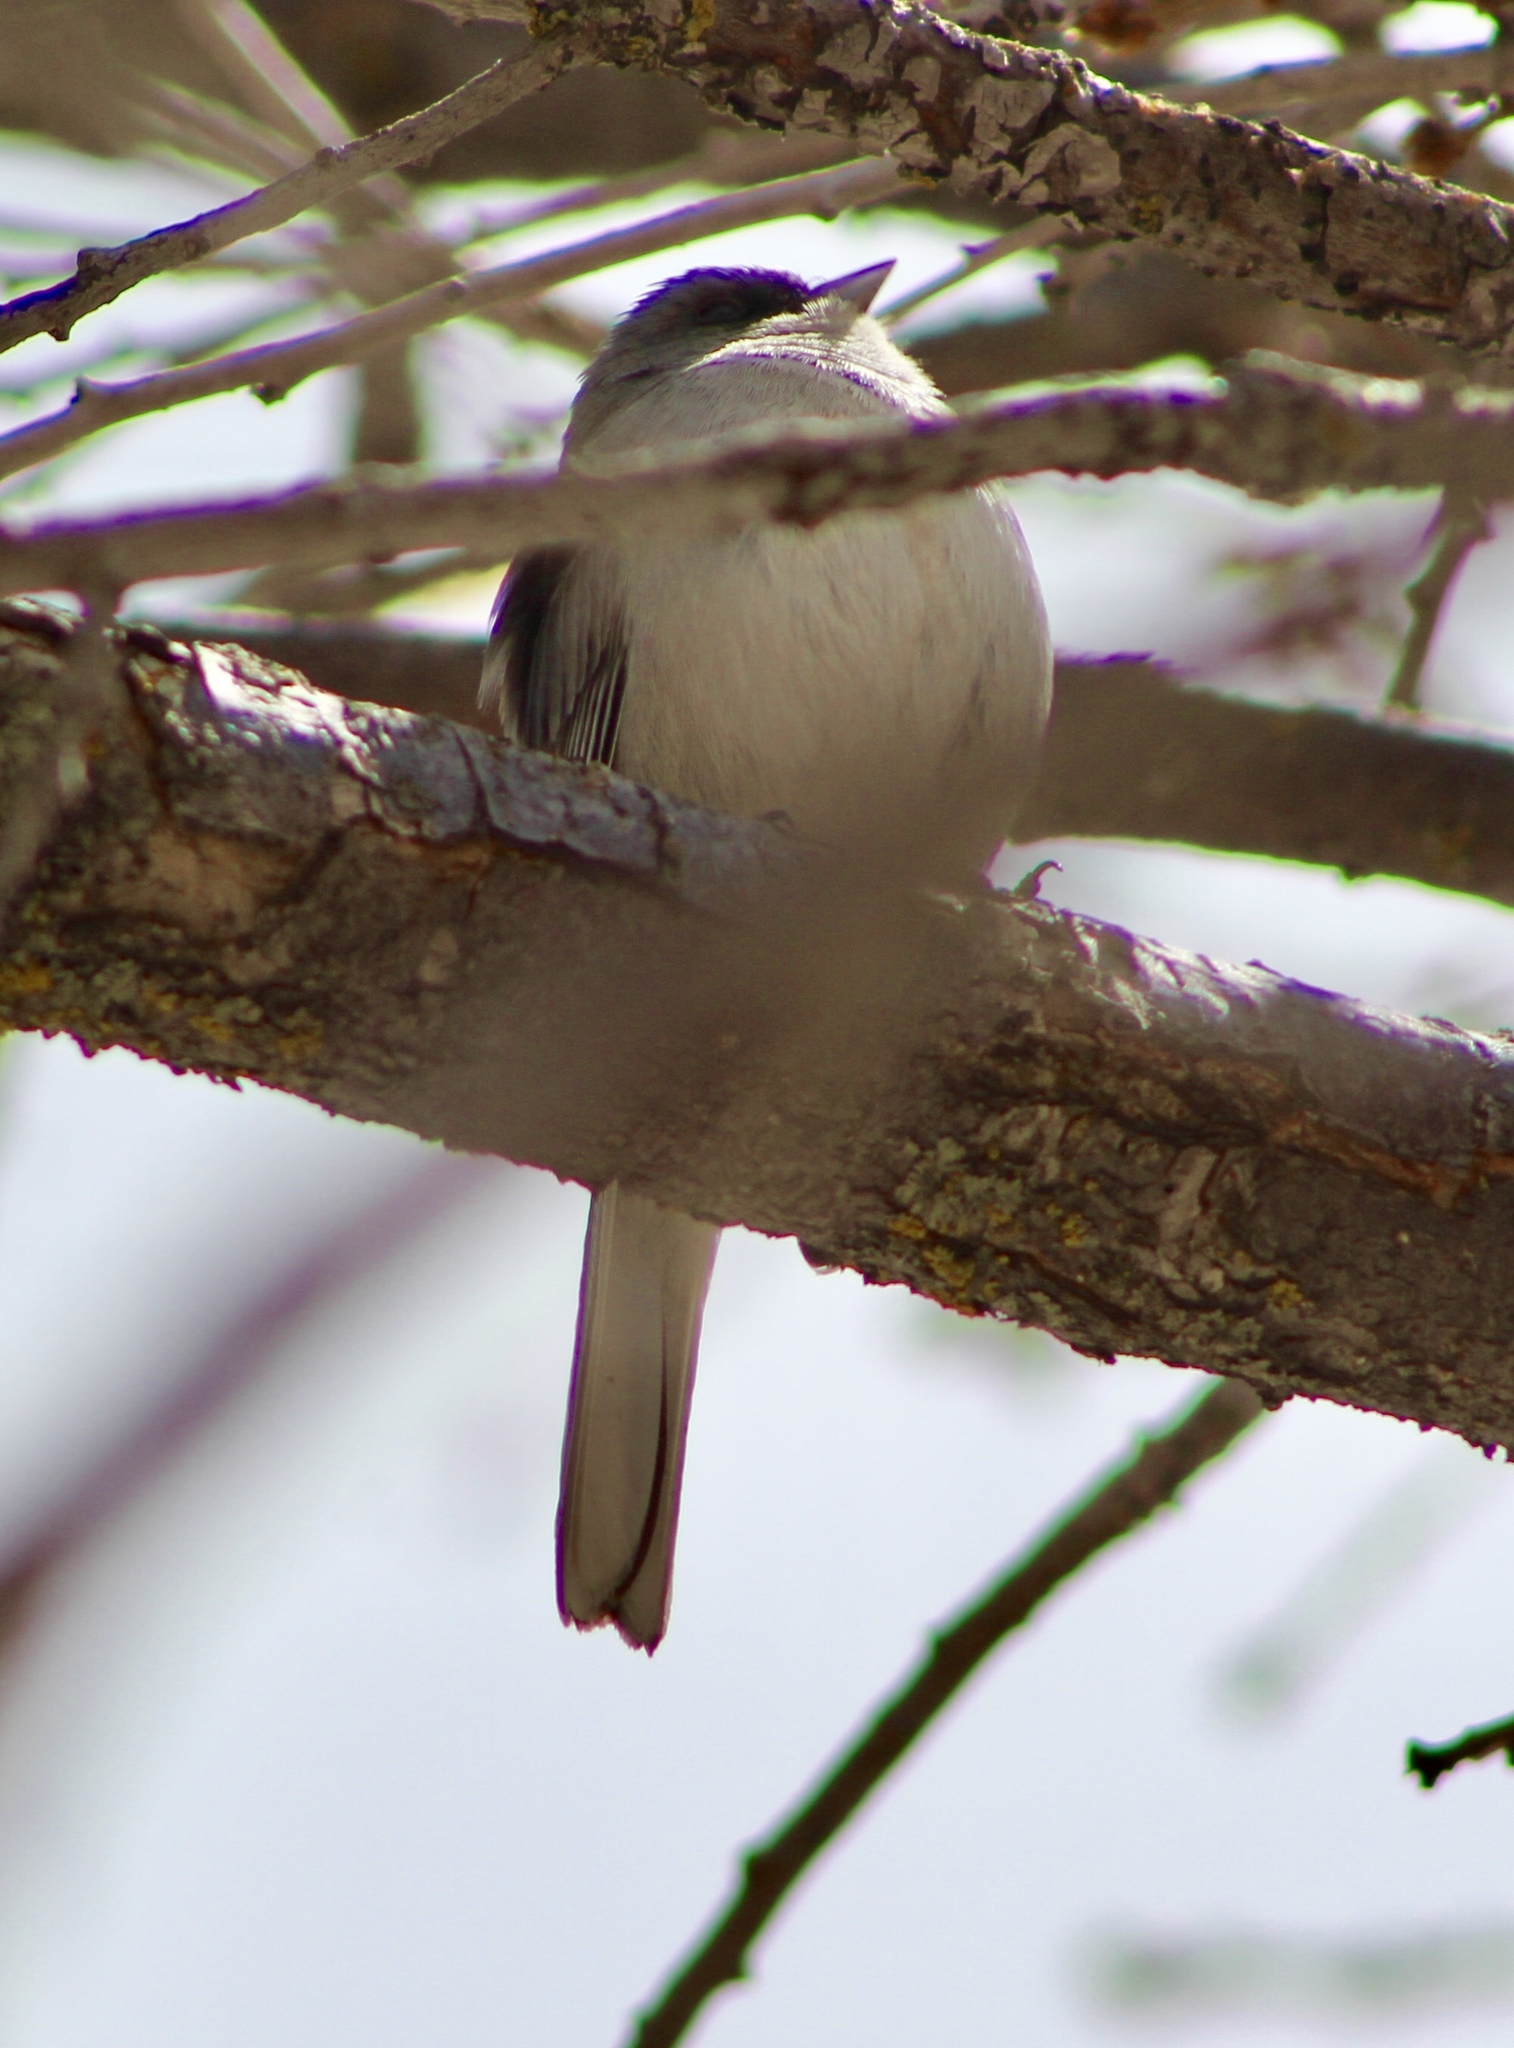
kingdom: Animalia
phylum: Chordata
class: Aves
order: Passeriformes
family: Passerellidae
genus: Junco
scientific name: Junco hyemalis
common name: Dark-eyed junco
